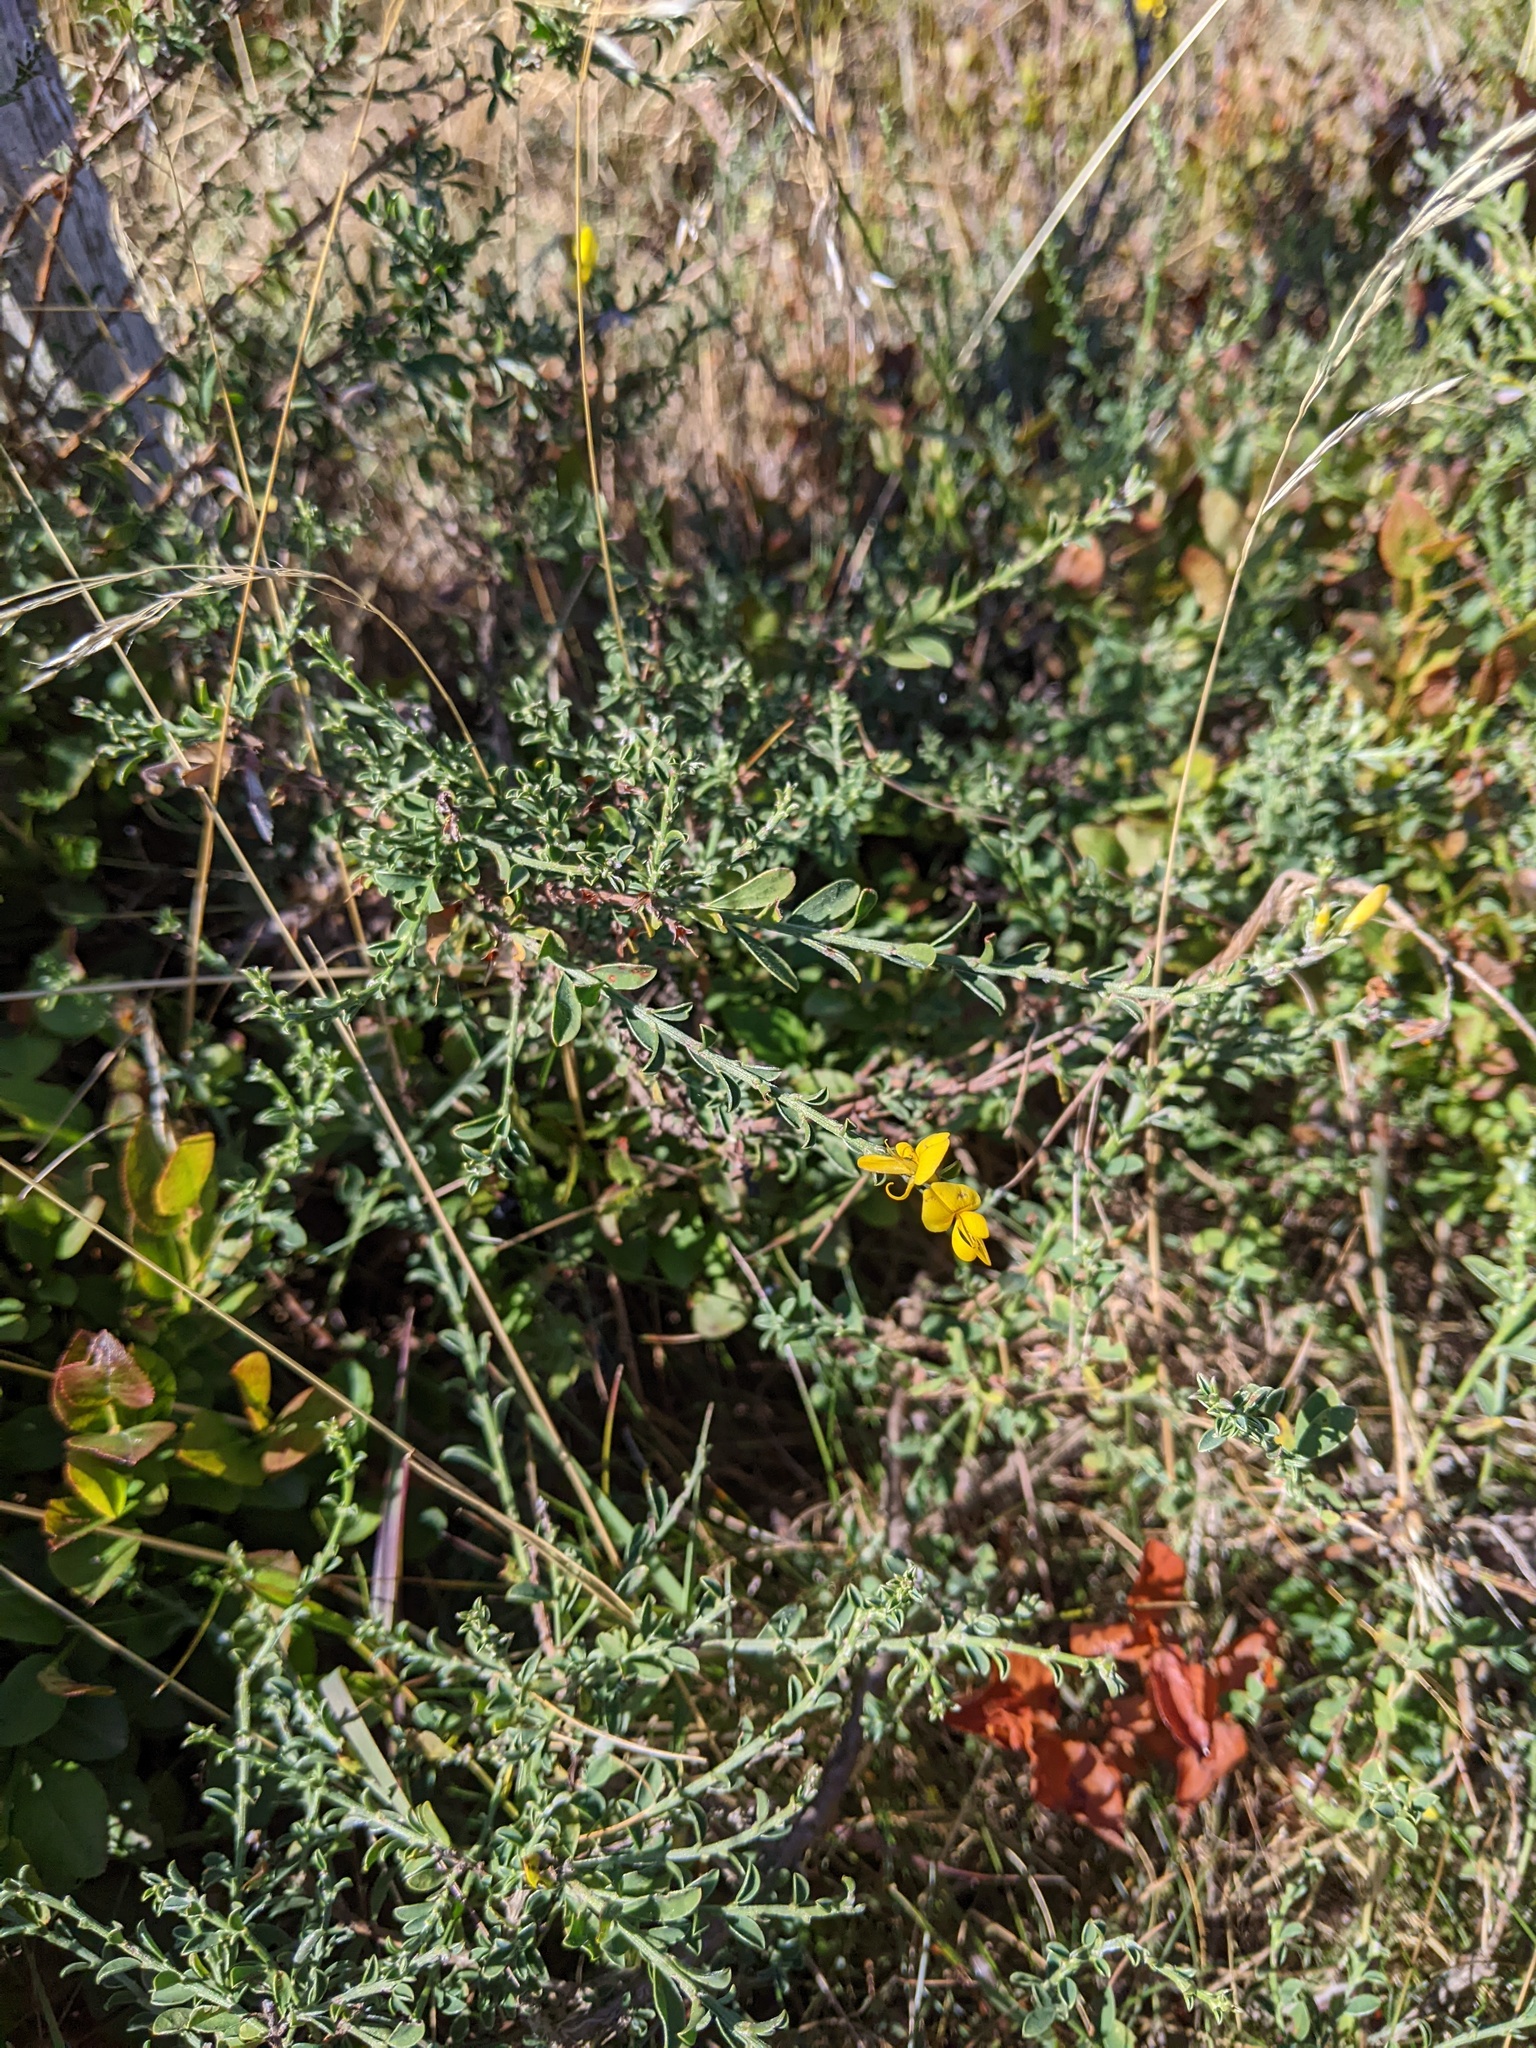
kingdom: Plantae
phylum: Tracheophyta
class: Magnoliopsida
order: Fabales
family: Fabaceae
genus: Genista
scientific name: Genista pilosa
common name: Hairy greenweed
